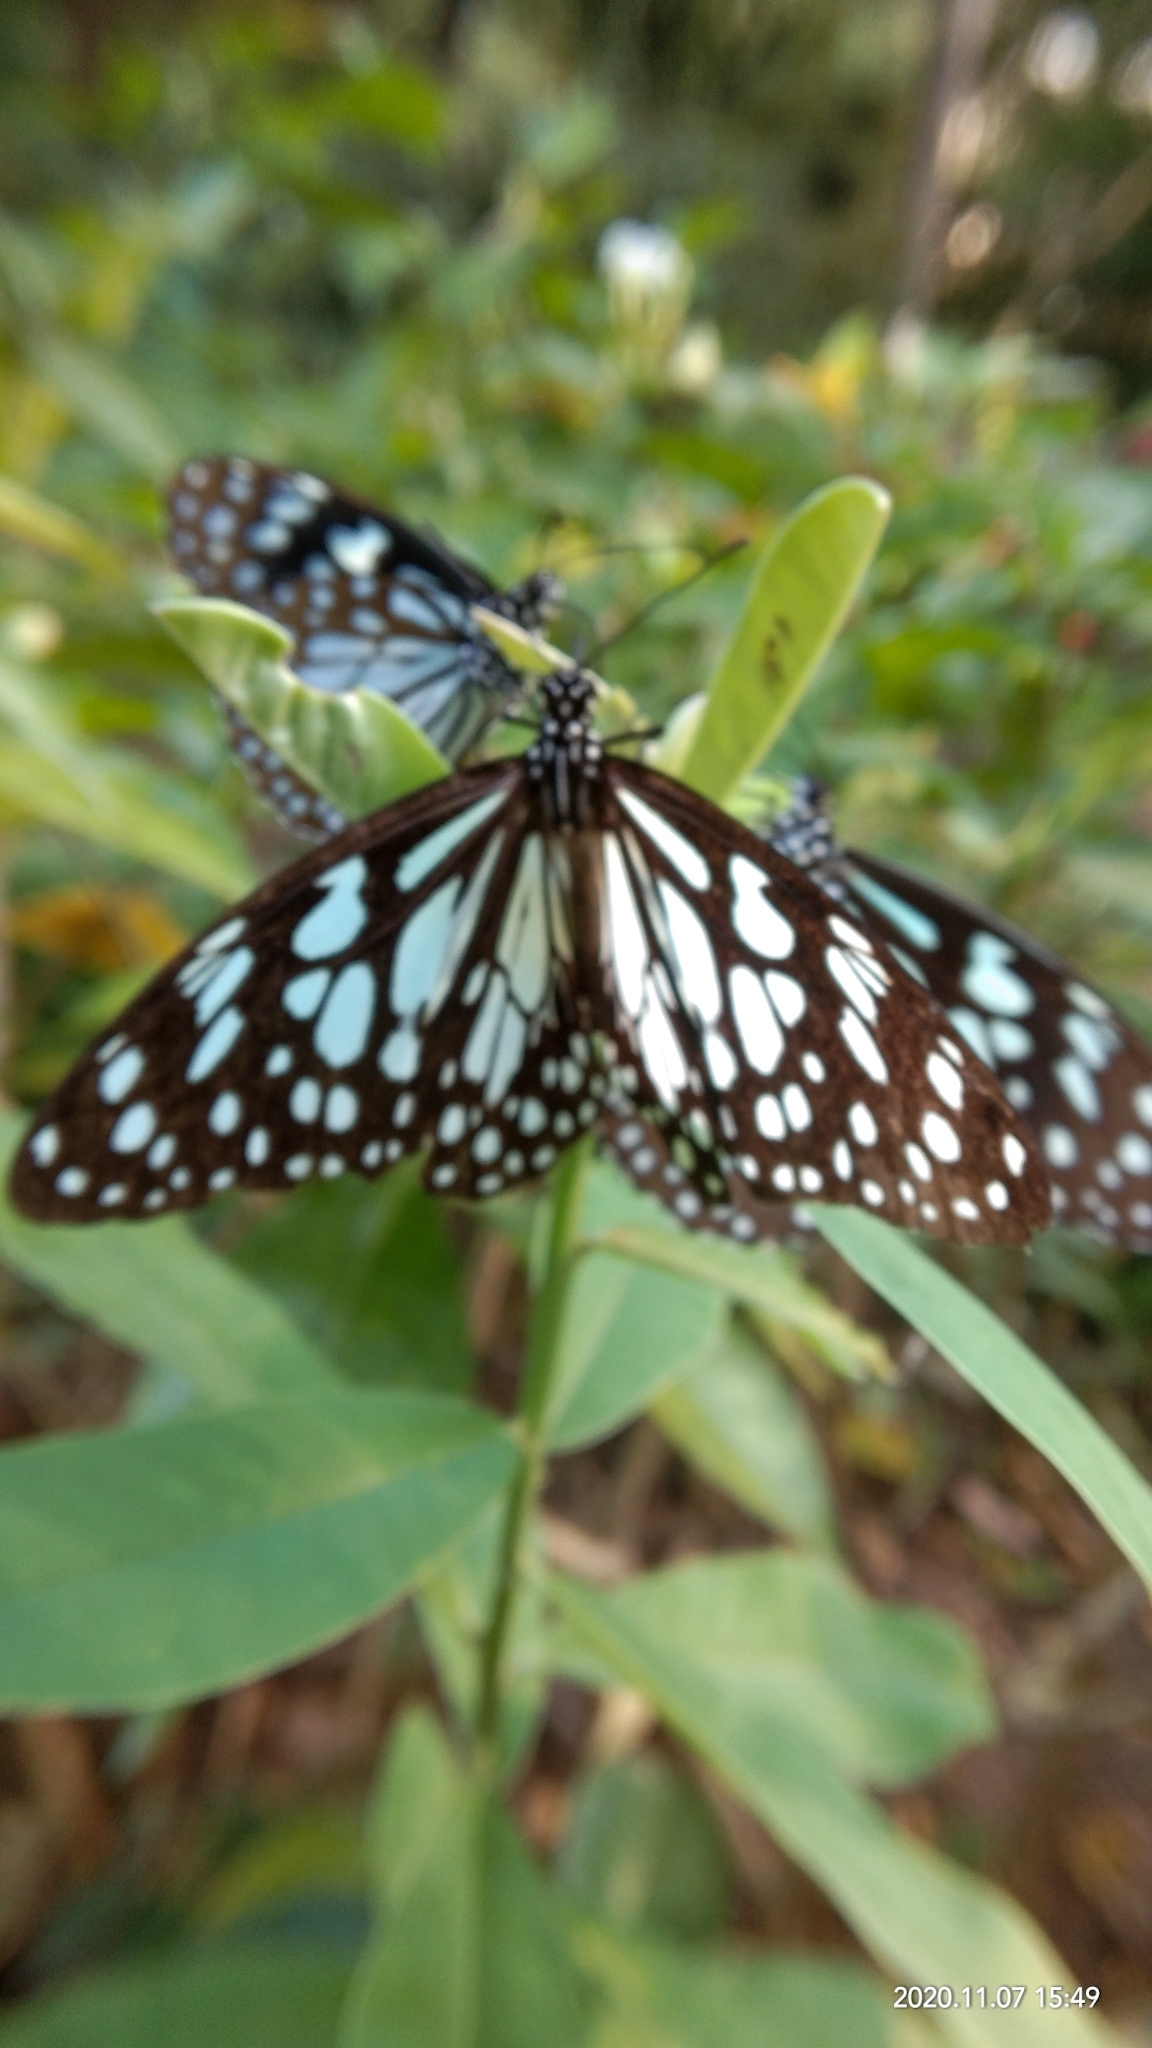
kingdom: Animalia
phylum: Arthropoda
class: Insecta
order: Lepidoptera
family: Nymphalidae
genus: Tirumala
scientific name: Tirumala limniace
